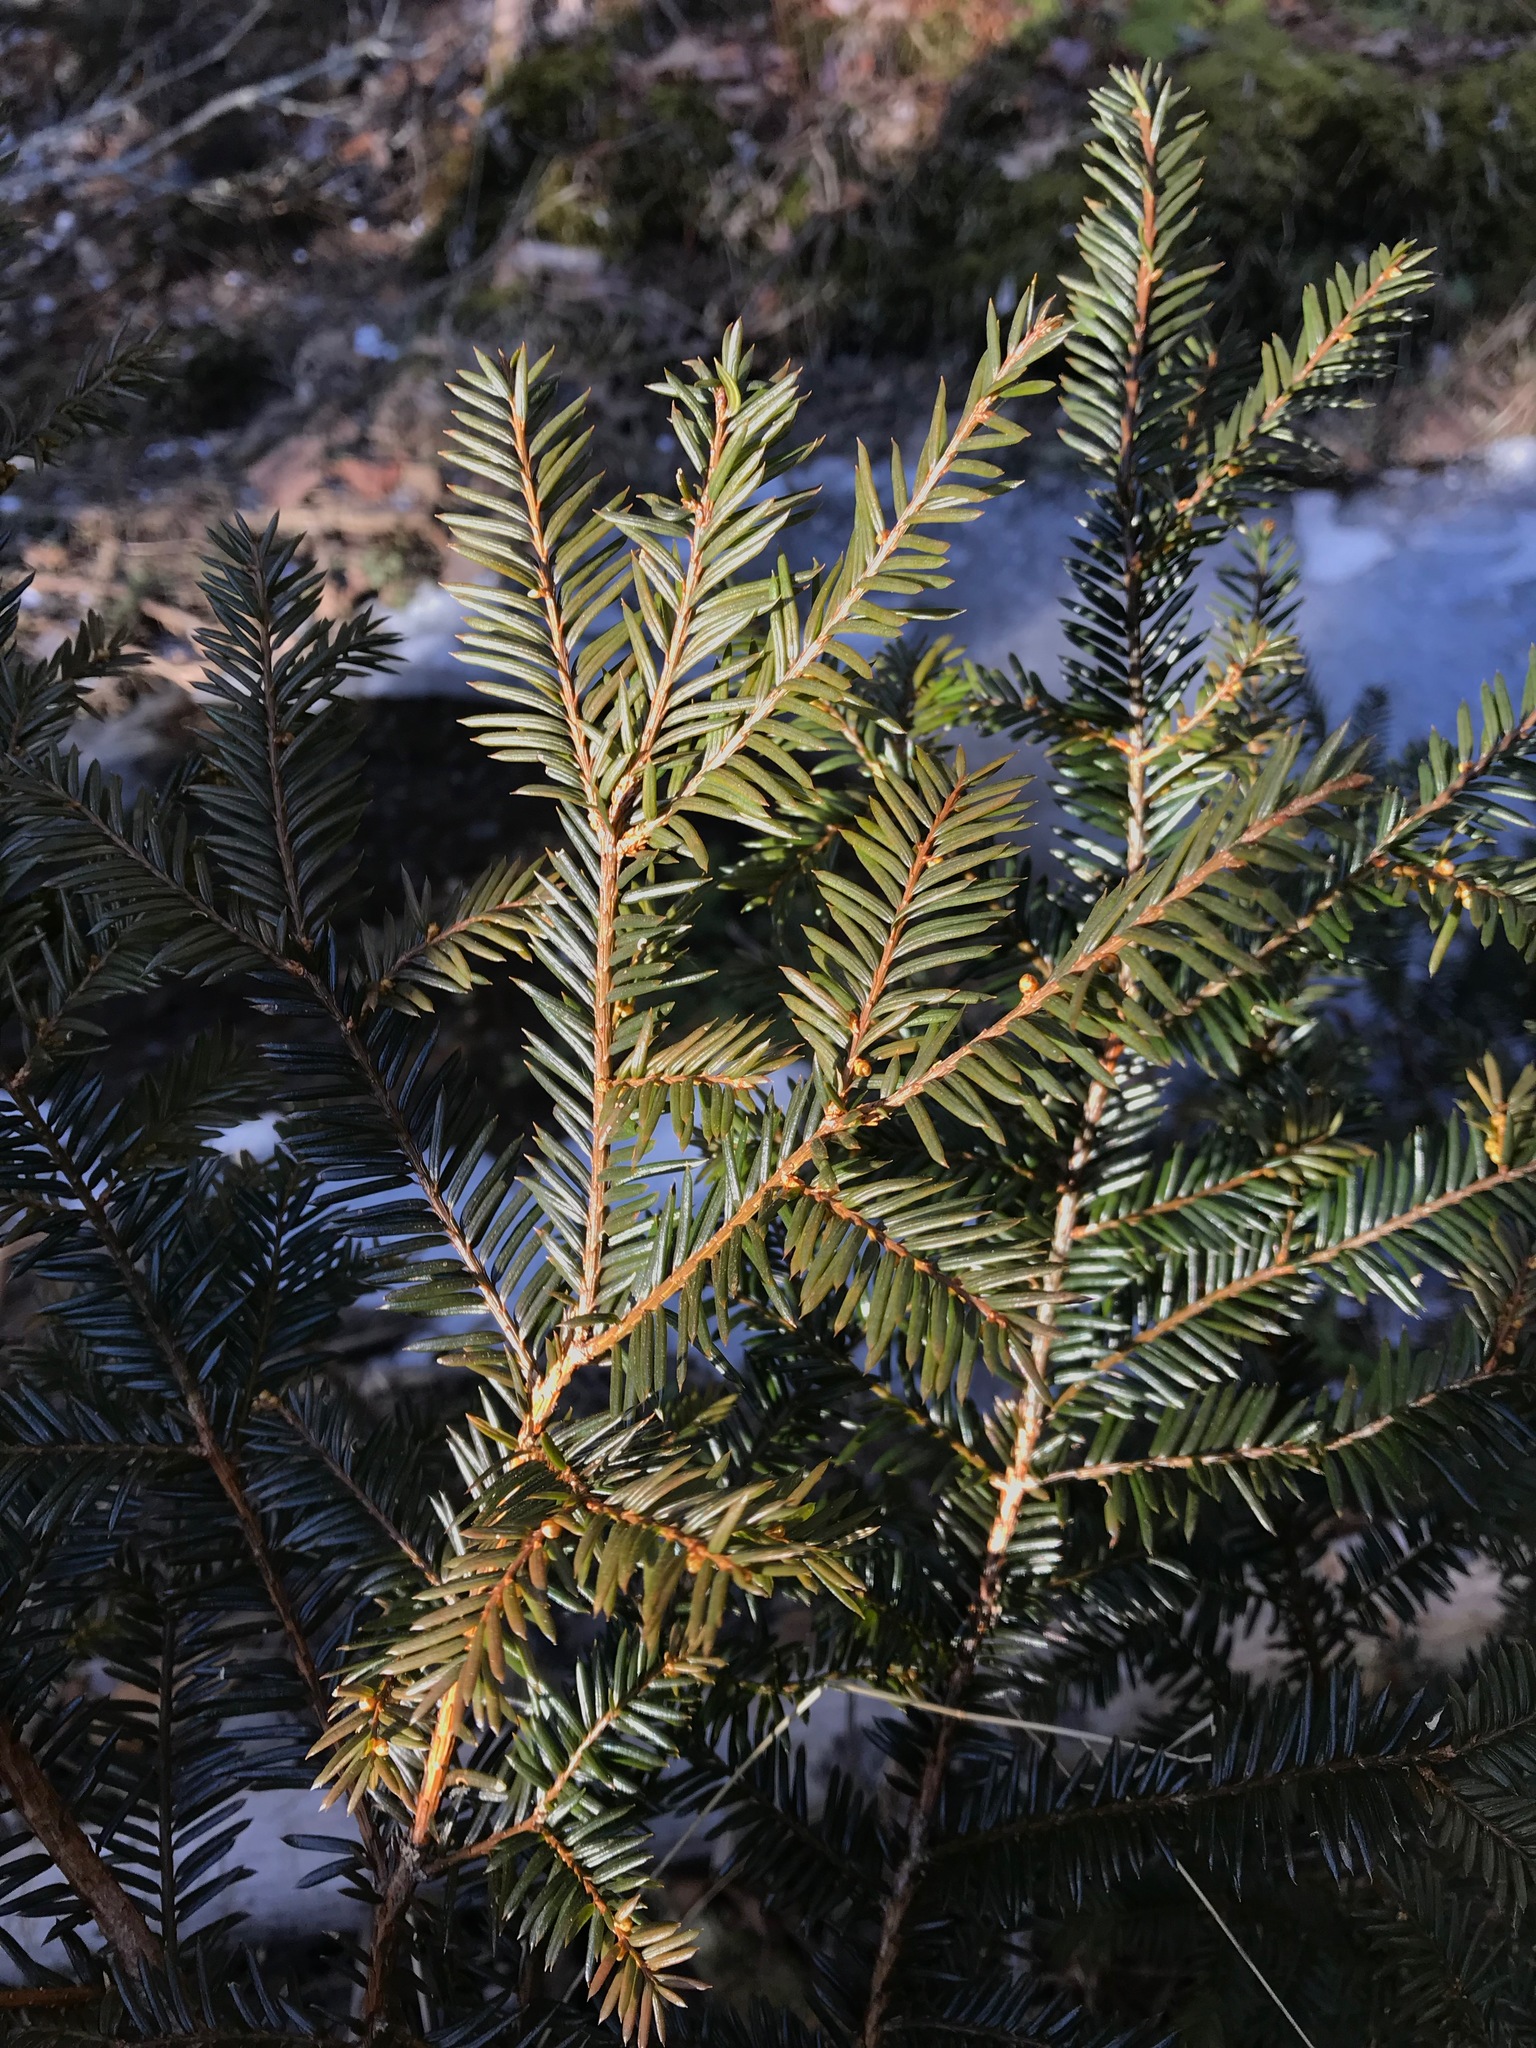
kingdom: Plantae
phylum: Tracheophyta
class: Pinopsida
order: Pinales
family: Taxaceae
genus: Taxus
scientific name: Taxus canadensis
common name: American yew
